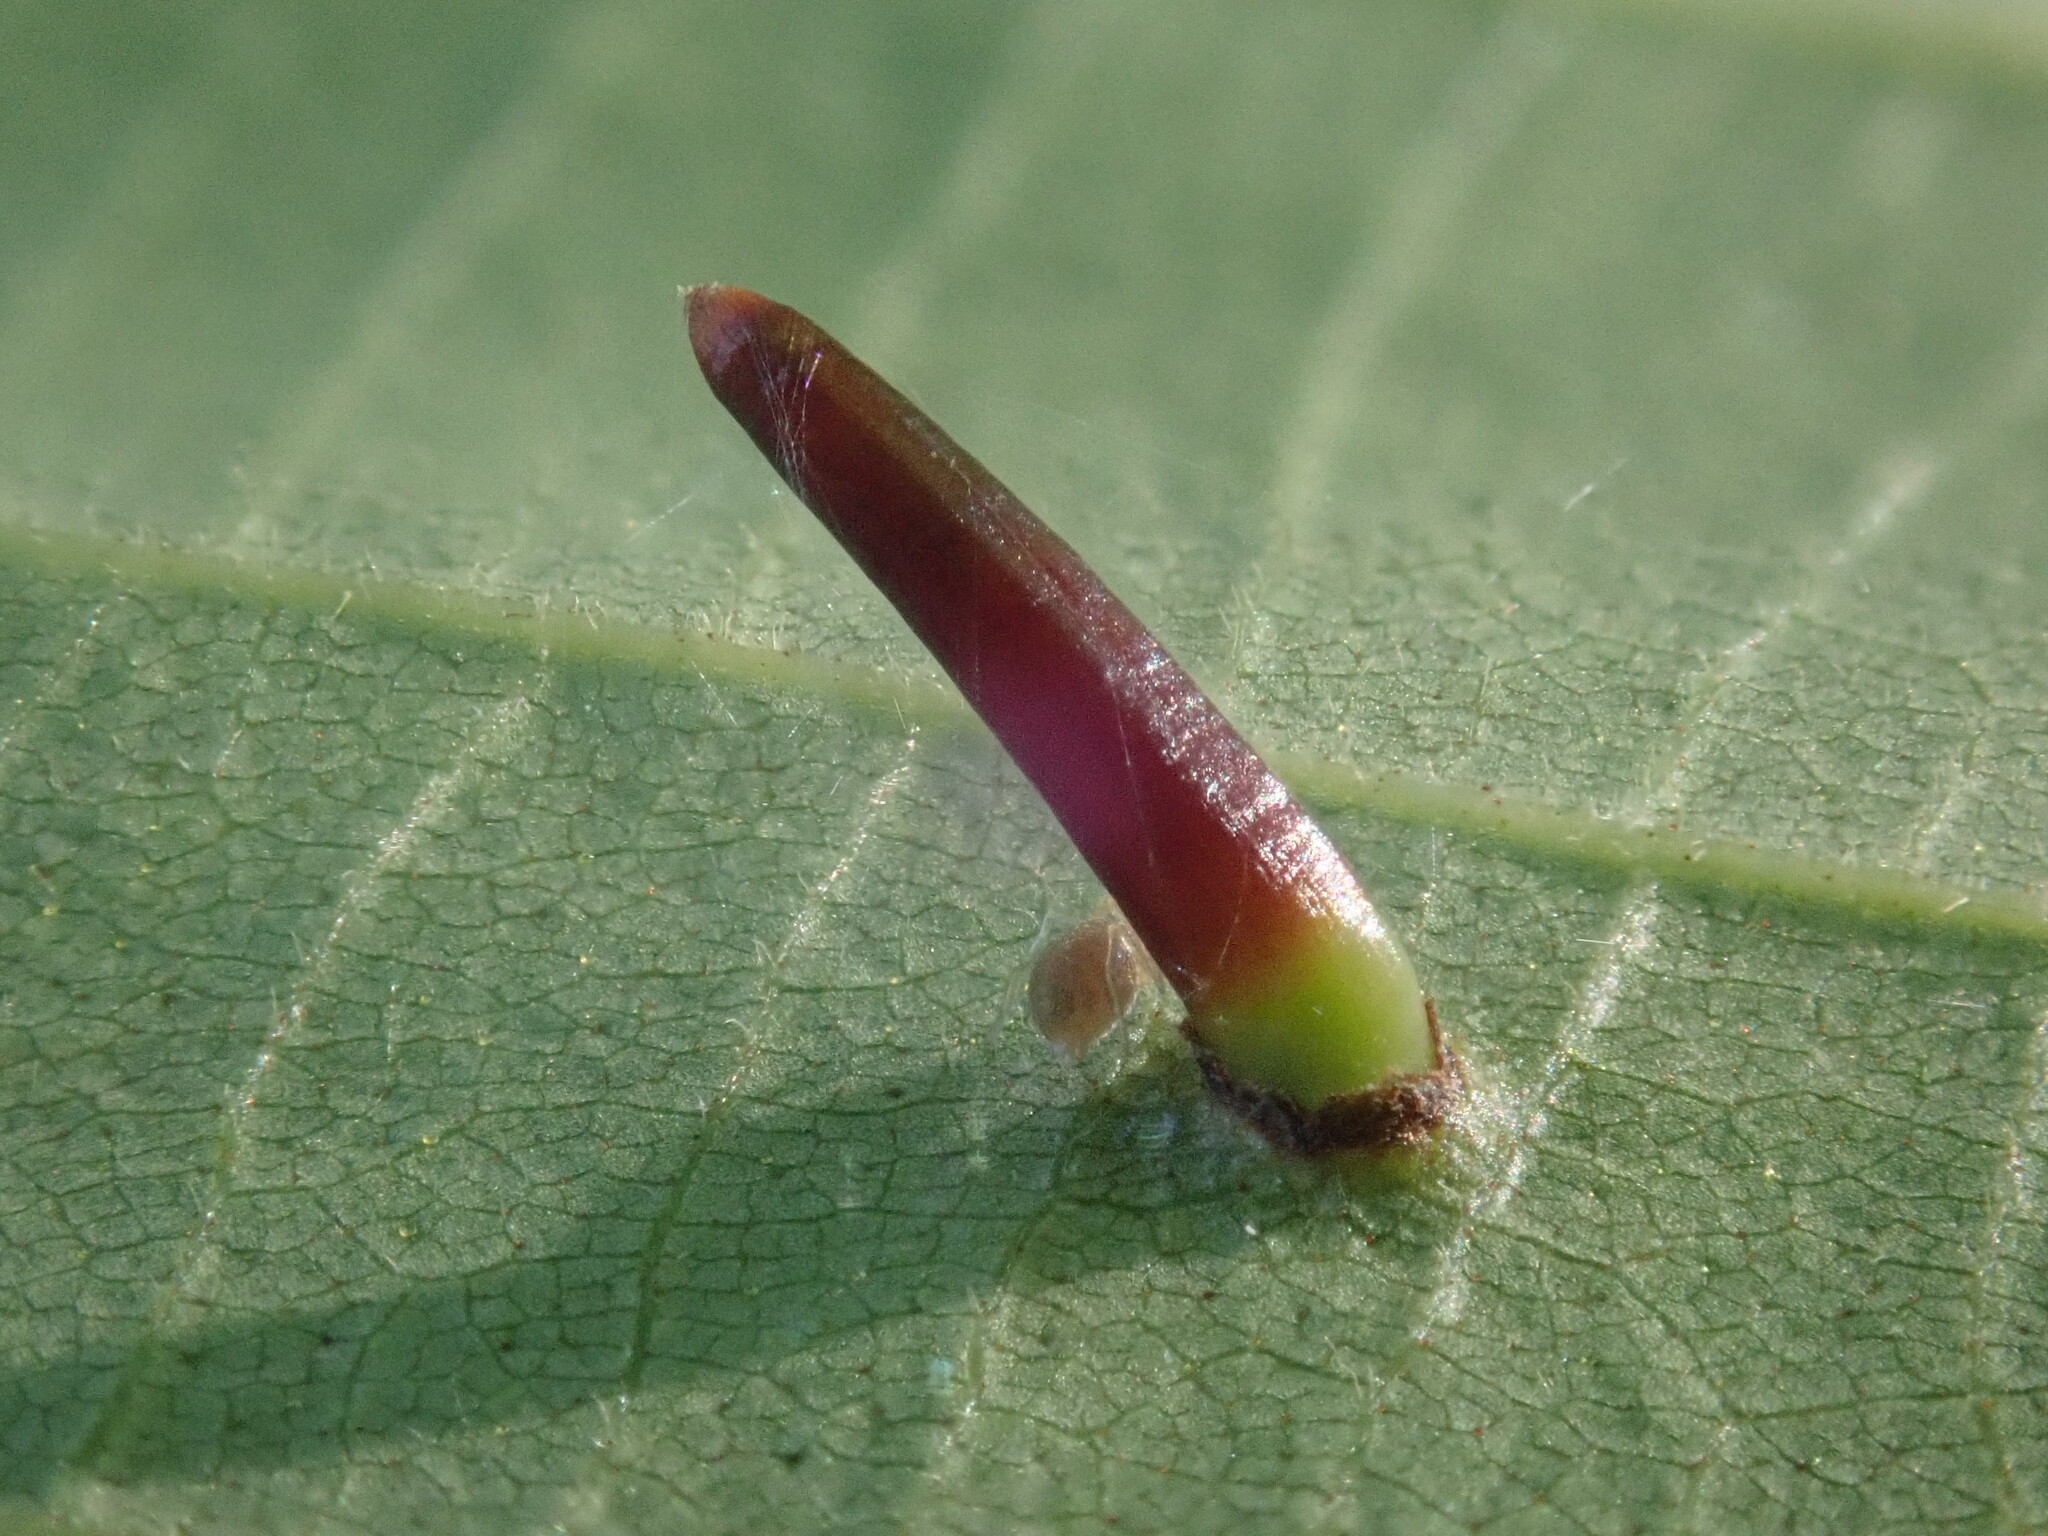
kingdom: Animalia
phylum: Arthropoda
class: Insecta
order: Diptera
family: Cecidomyiidae
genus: Caryomyia
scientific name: Caryomyia subulata
